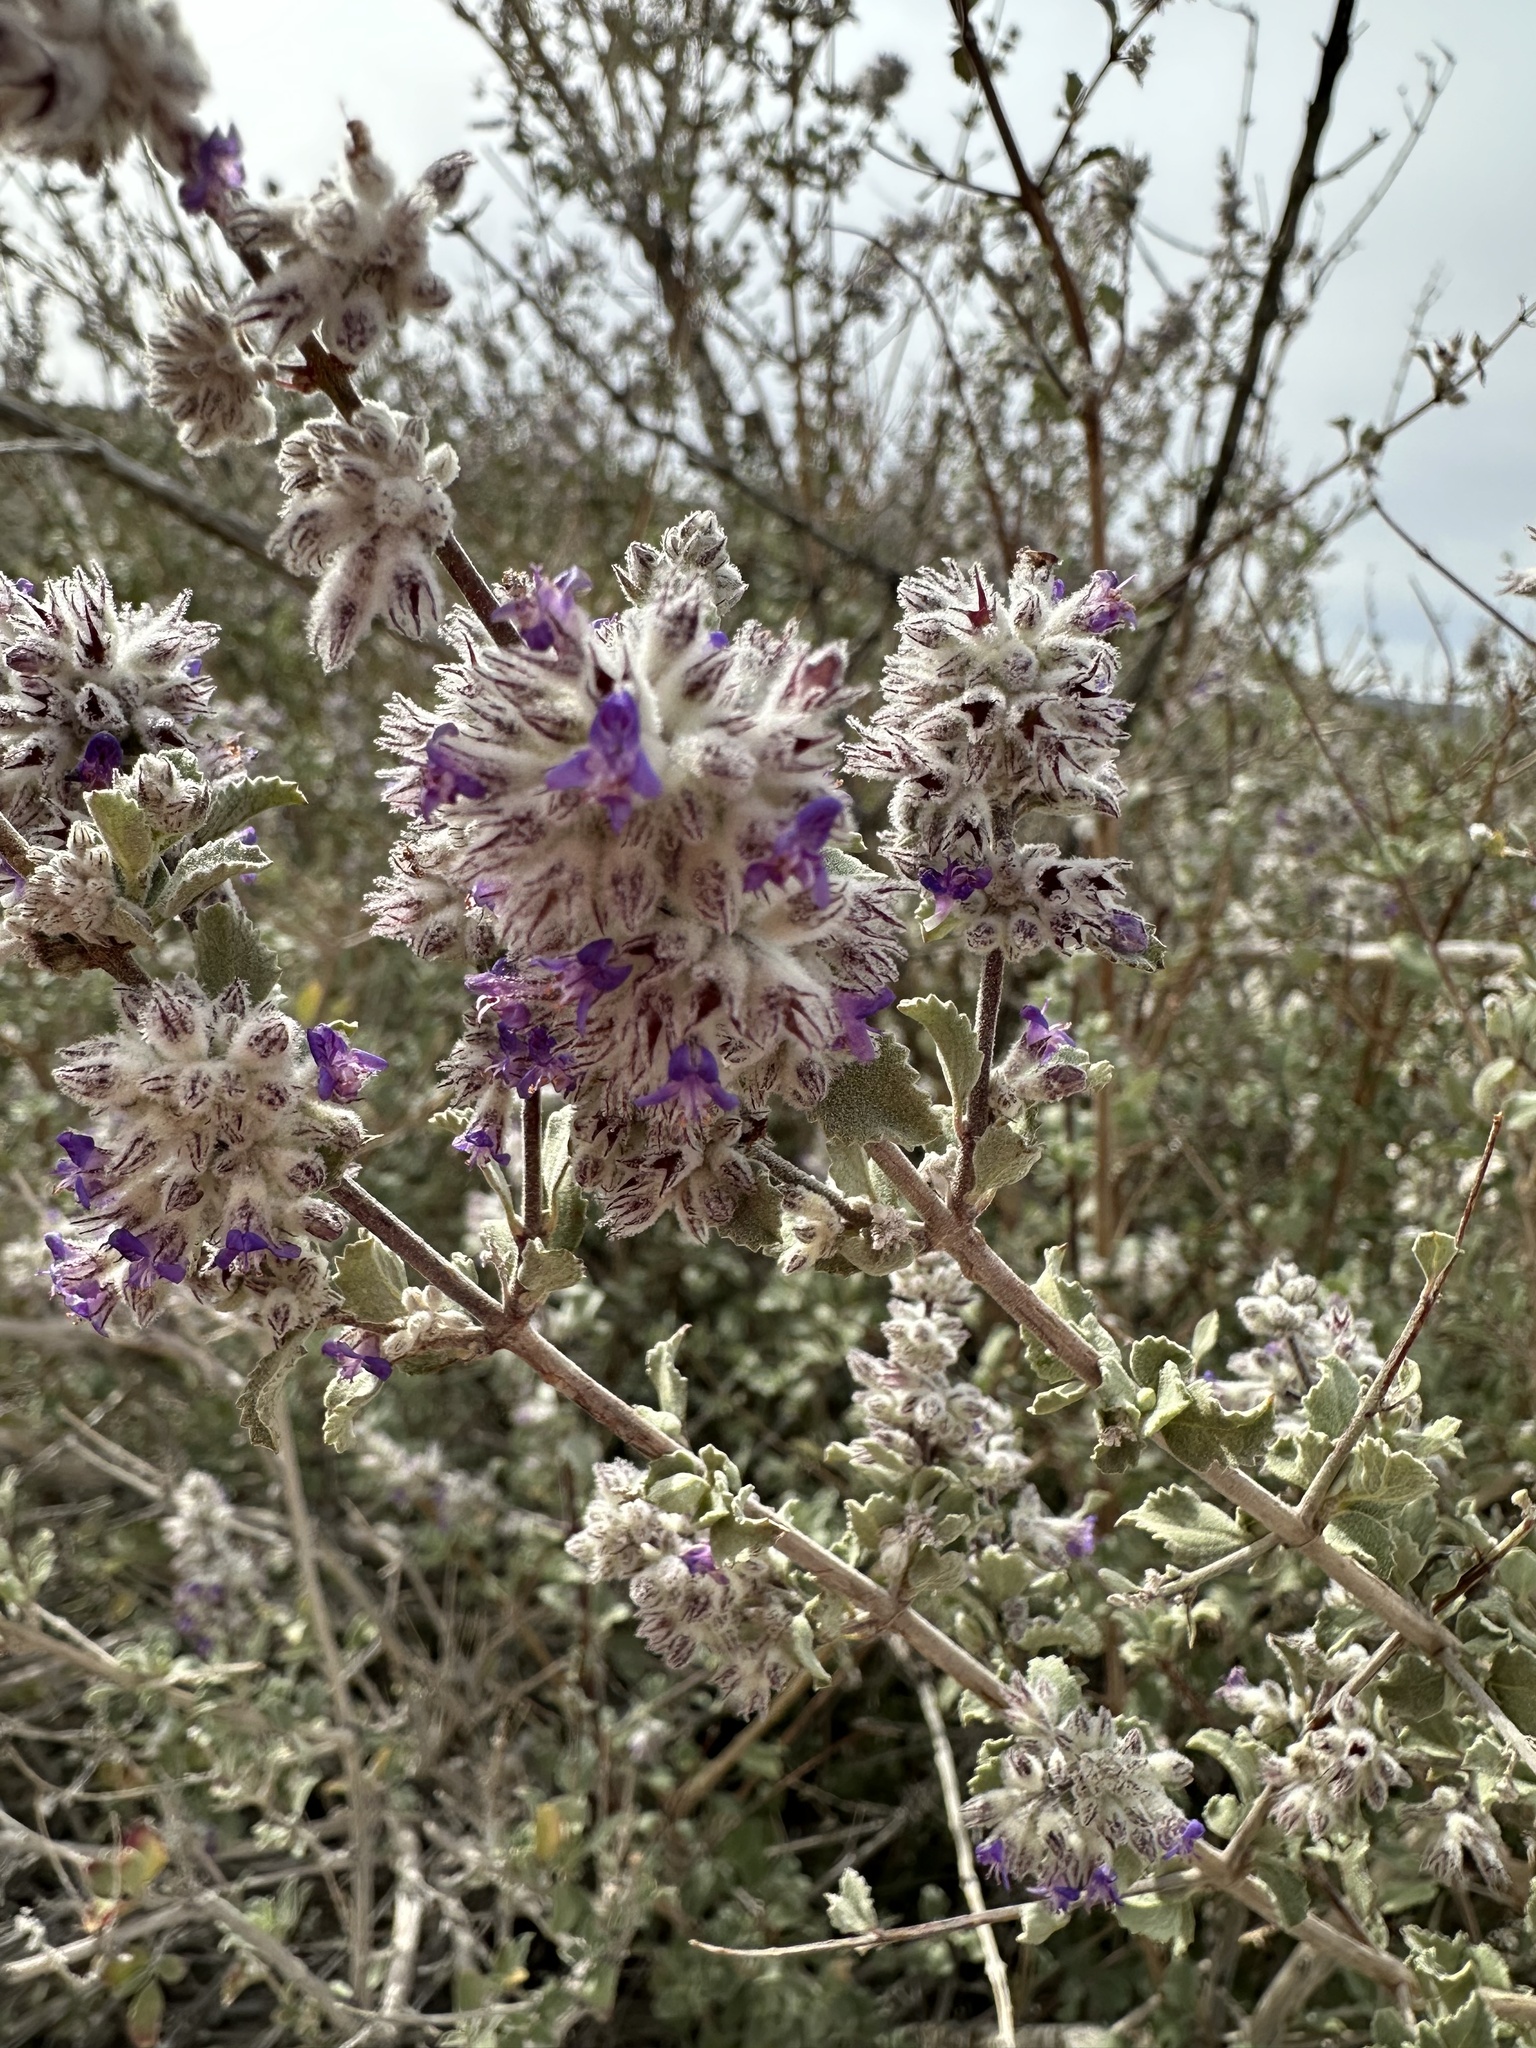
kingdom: Plantae
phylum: Tracheophyta
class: Magnoliopsida
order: Lamiales
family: Lamiaceae
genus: Condea
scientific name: Condea emoryi
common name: Chia
